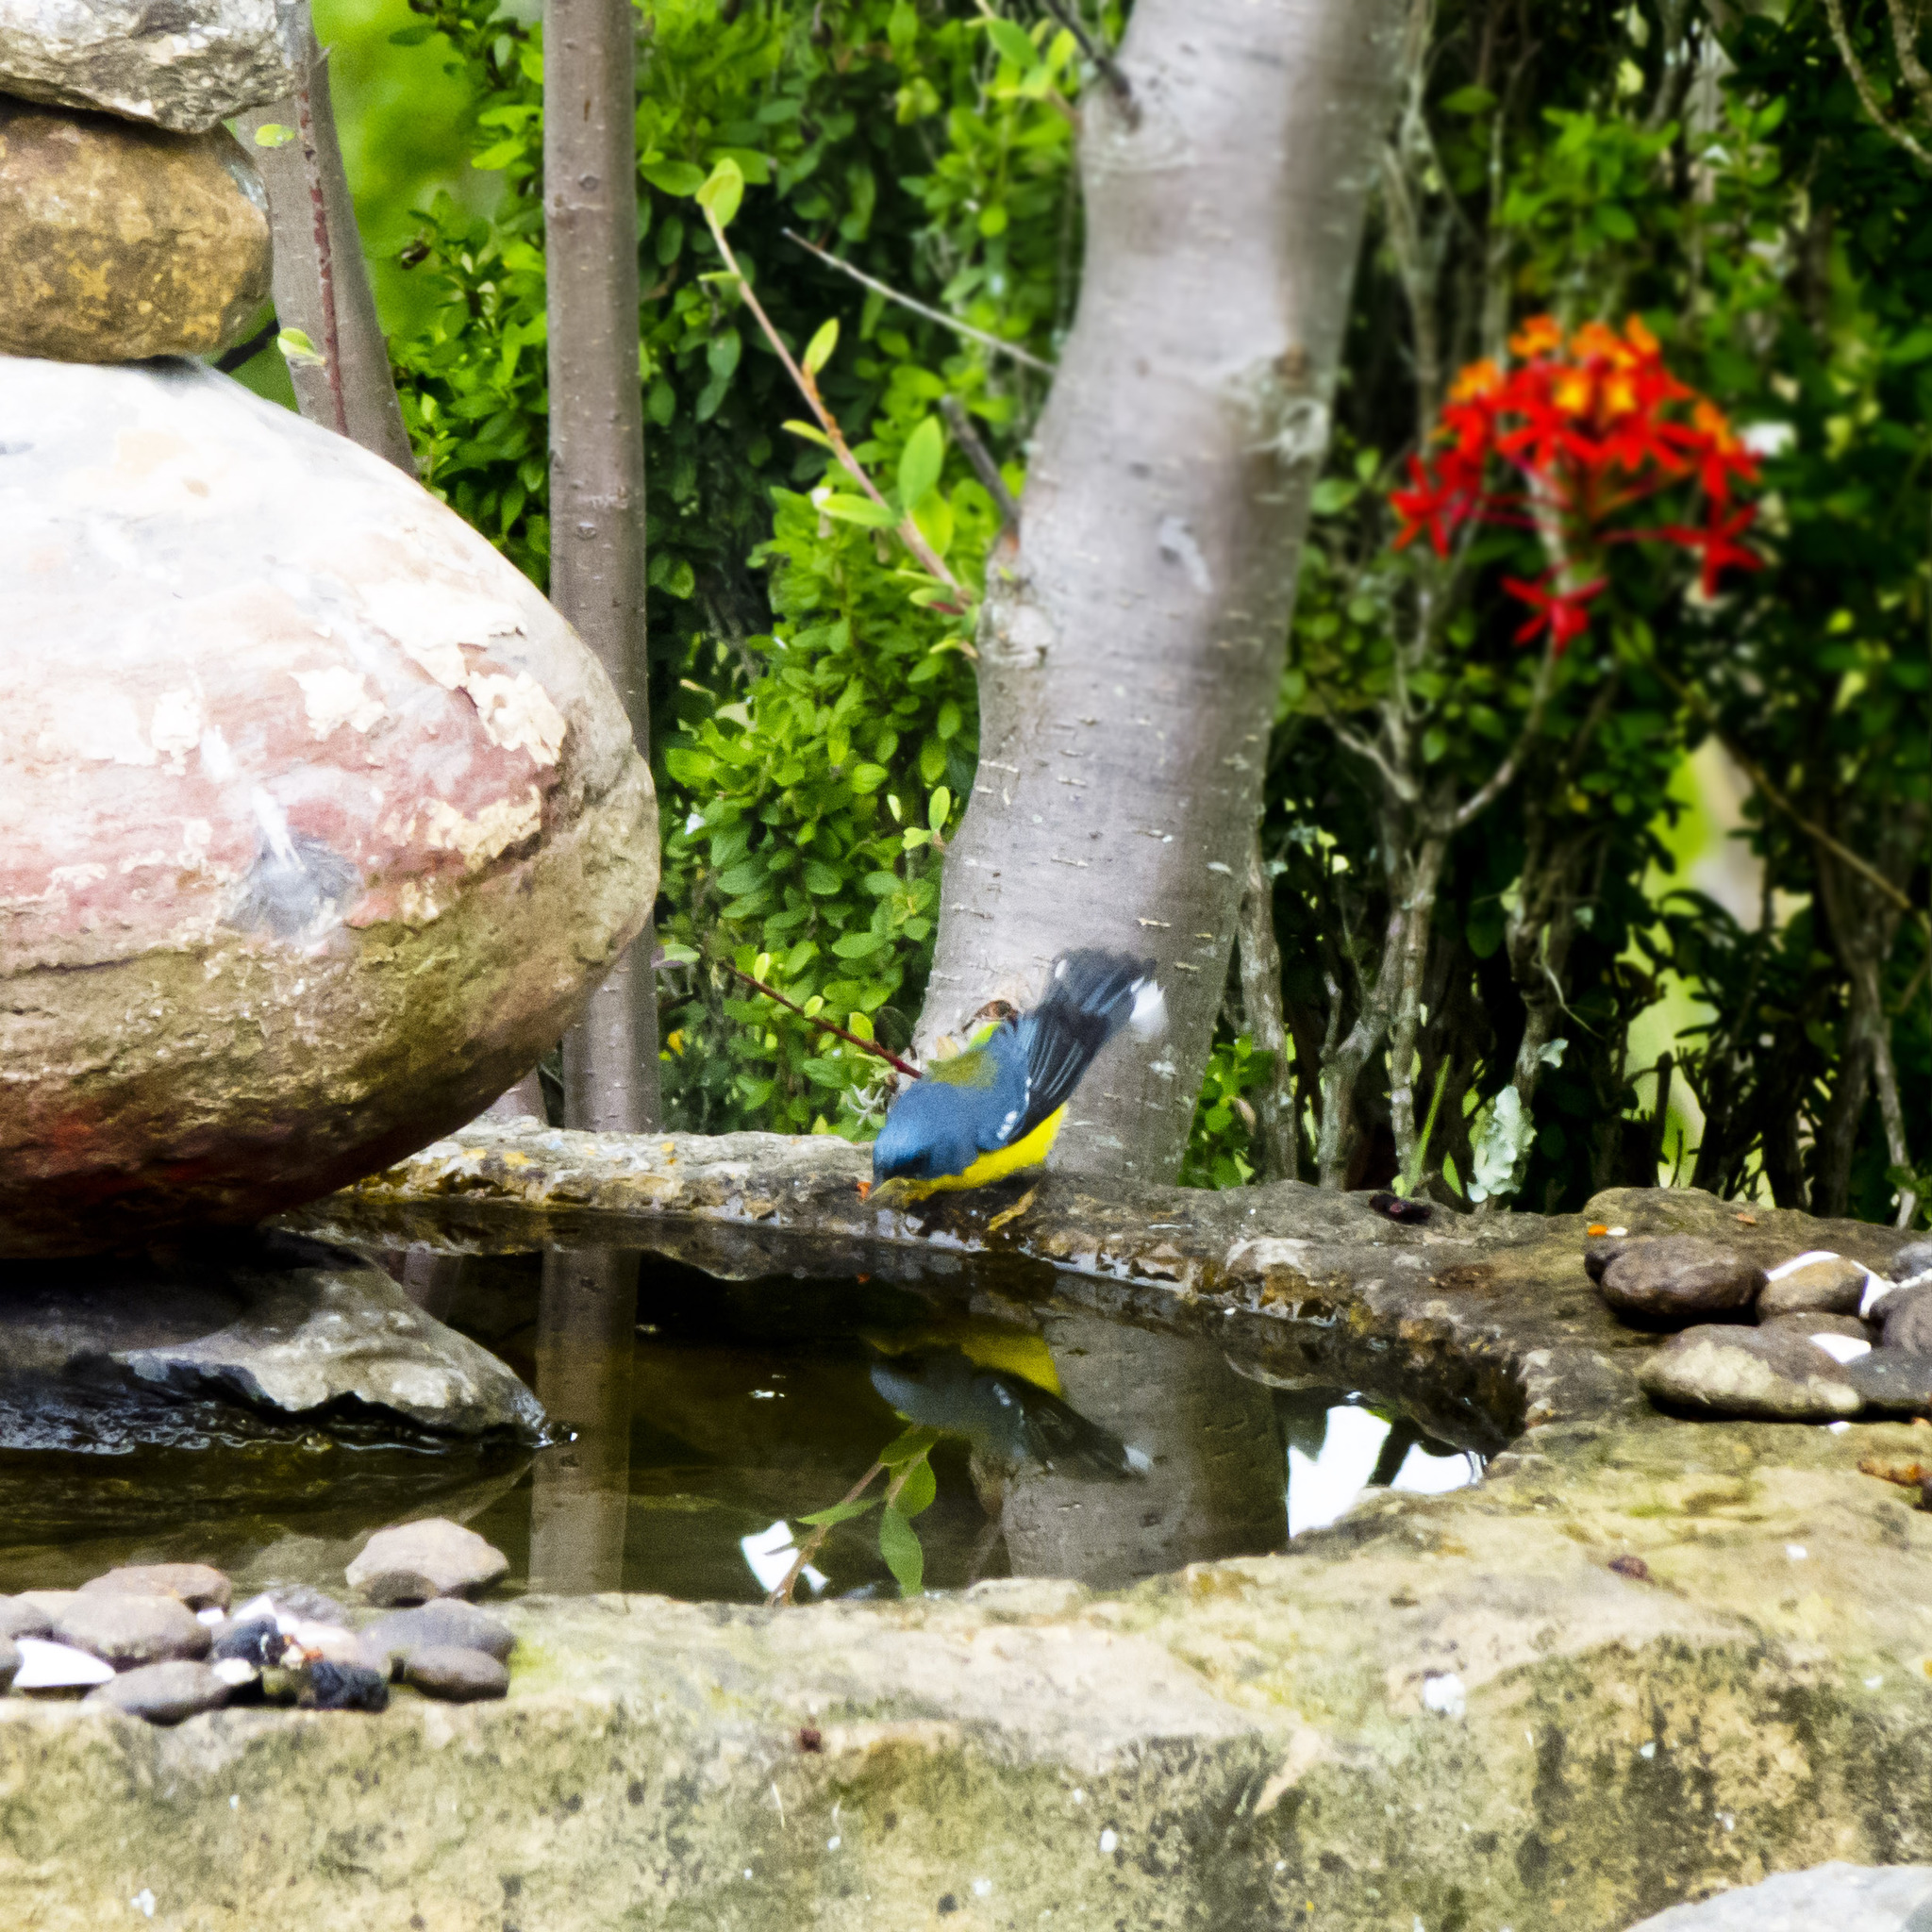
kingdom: Animalia
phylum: Chordata
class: Aves
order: Passeriformes
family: Parulidae
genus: Setophaga
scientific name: Setophaga pitiayumi
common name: Tropical parula
